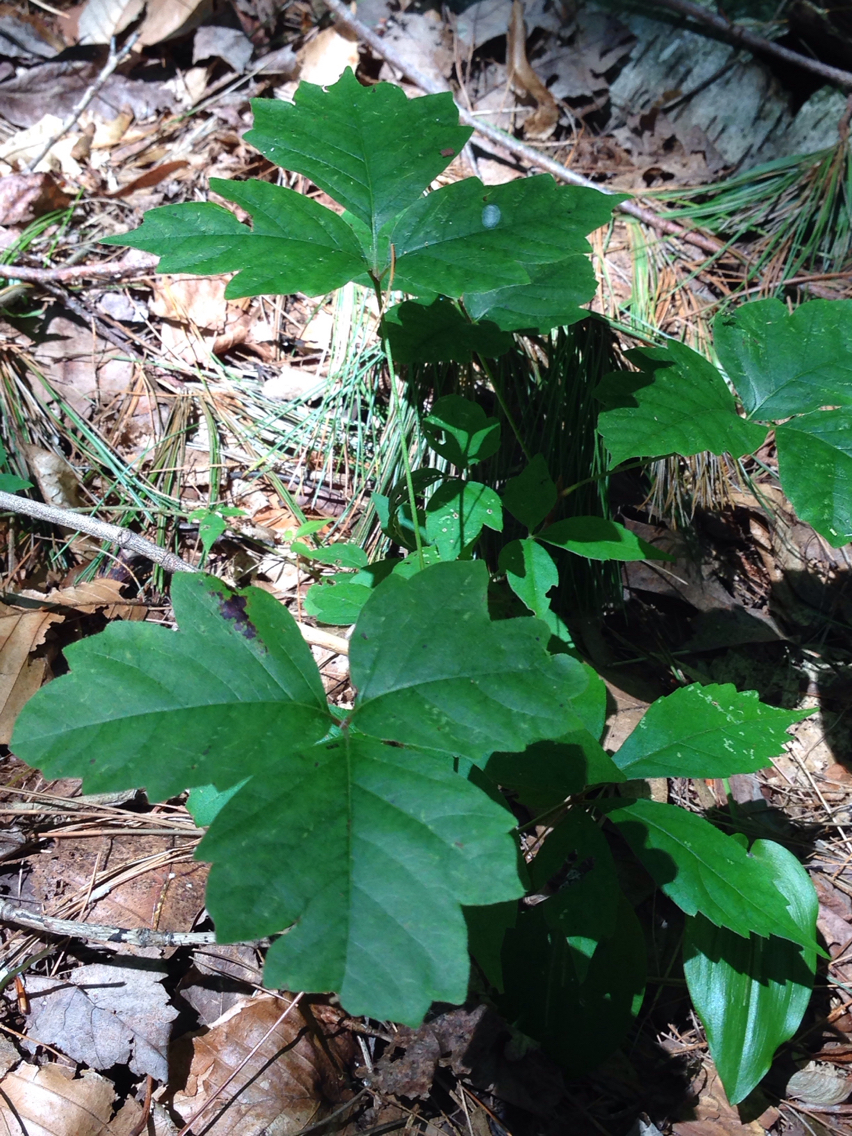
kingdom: Plantae
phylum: Tracheophyta
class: Magnoliopsida
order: Sapindales
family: Anacardiaceae
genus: Toxicodendron
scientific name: Toxicodendron radicans
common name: Poison ivy
